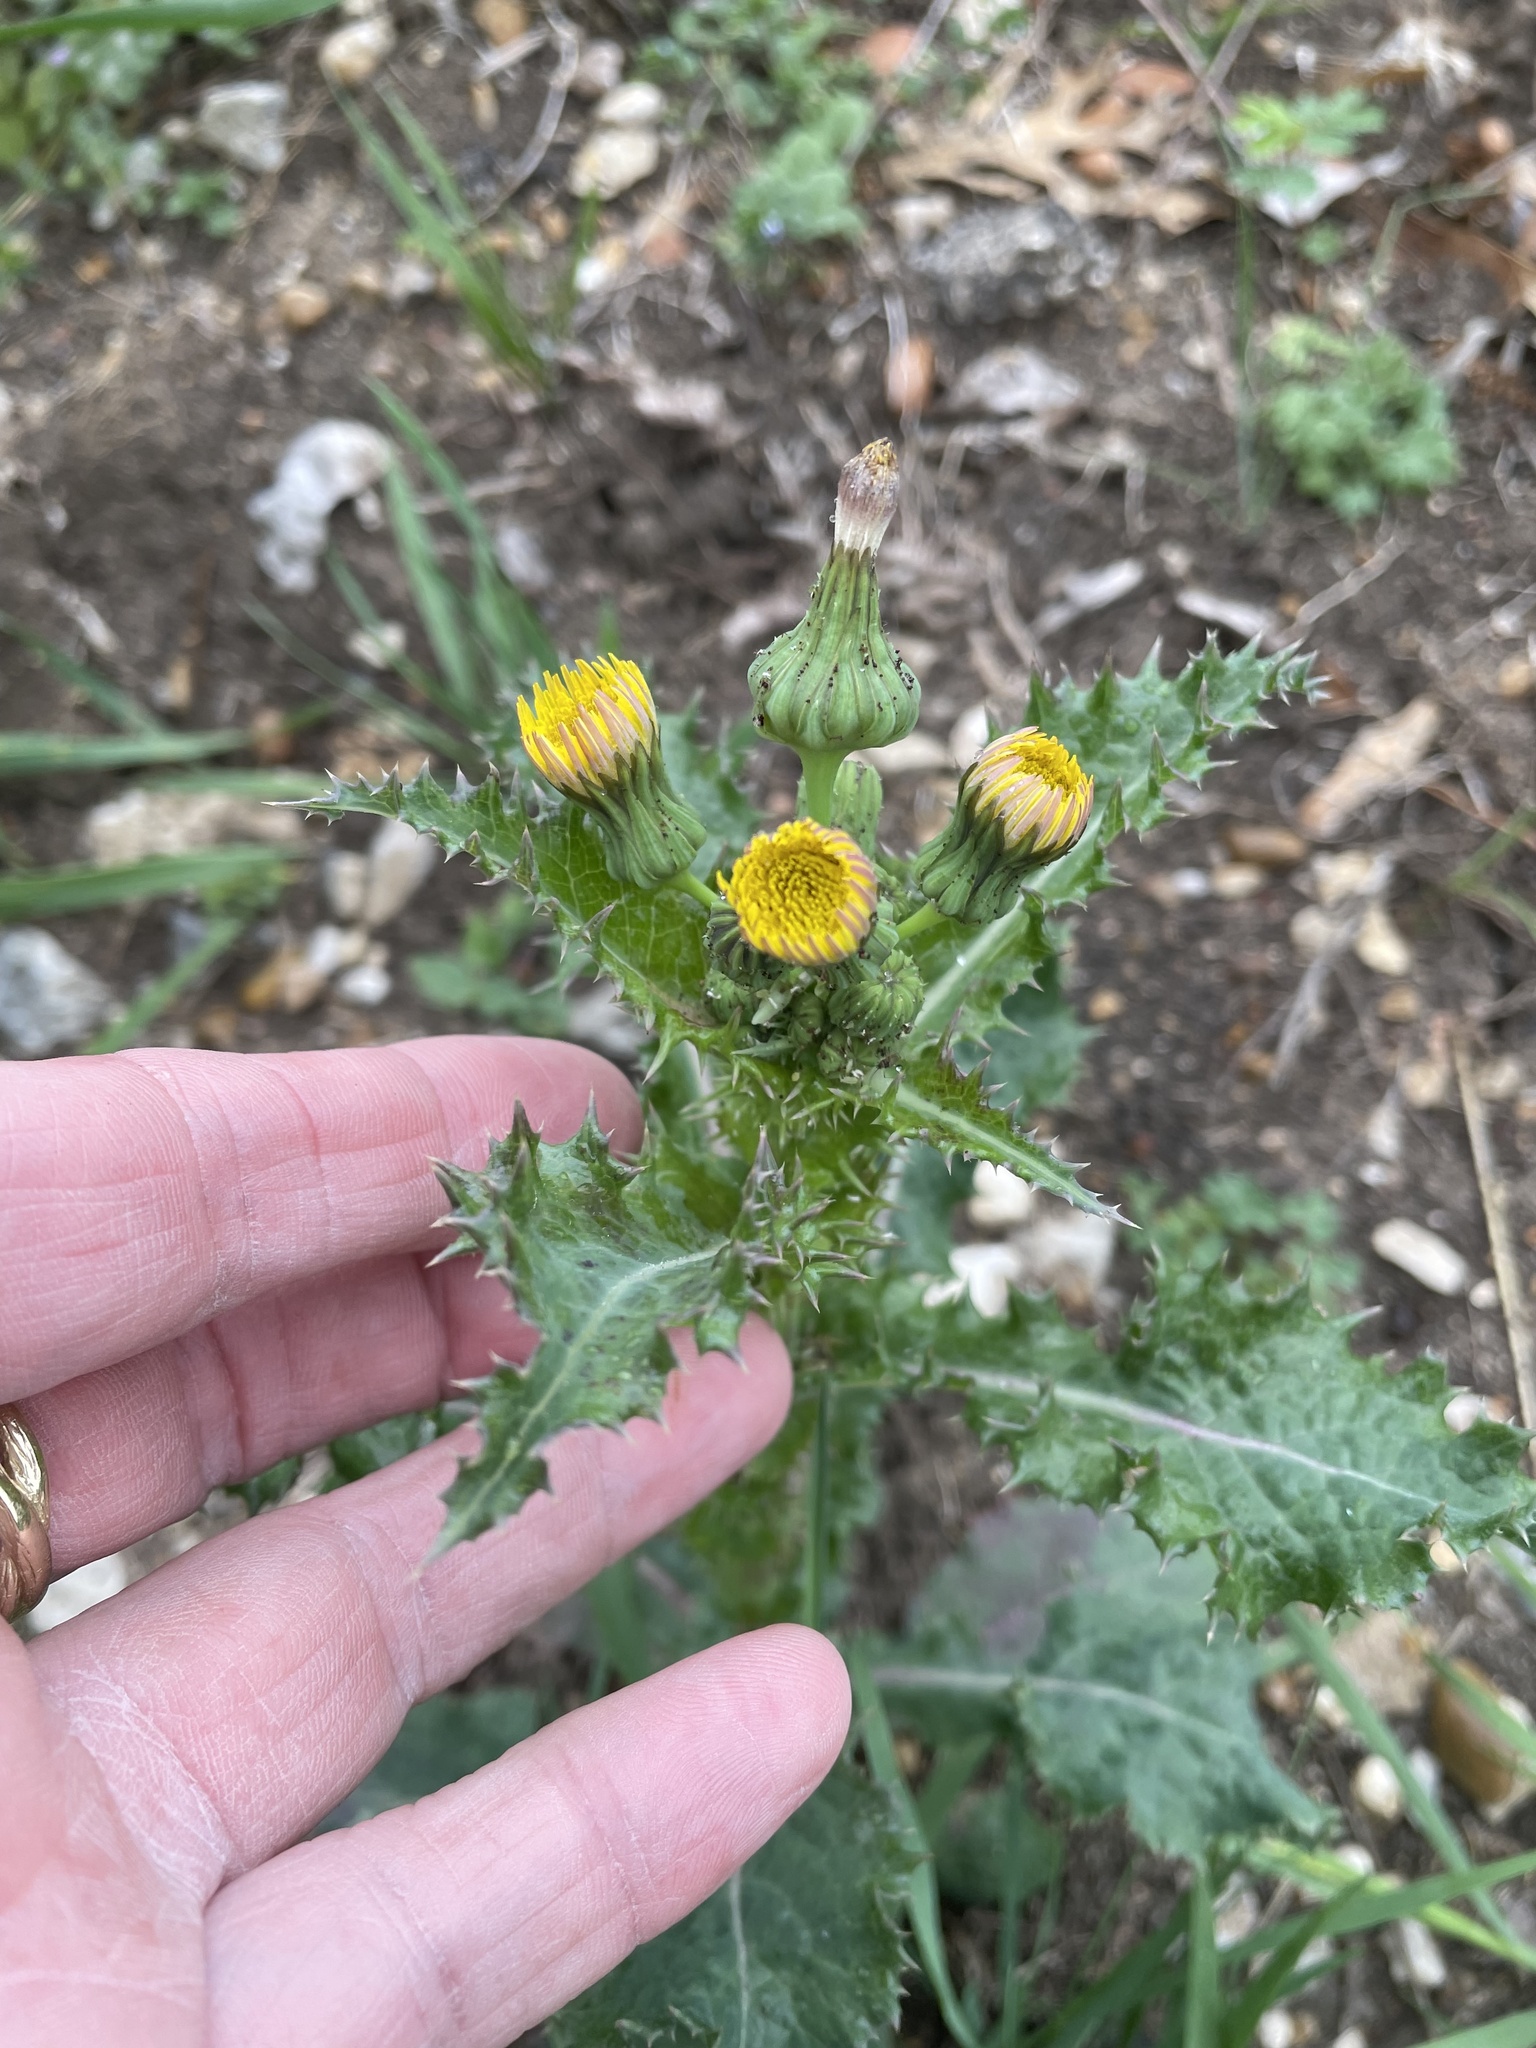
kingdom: Plantae
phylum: Tracheophyta
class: Magnoliopsida
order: Asterales
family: Asteraceae
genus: Sonchus
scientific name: Sonchus asper
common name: Prickly sow-thistle
